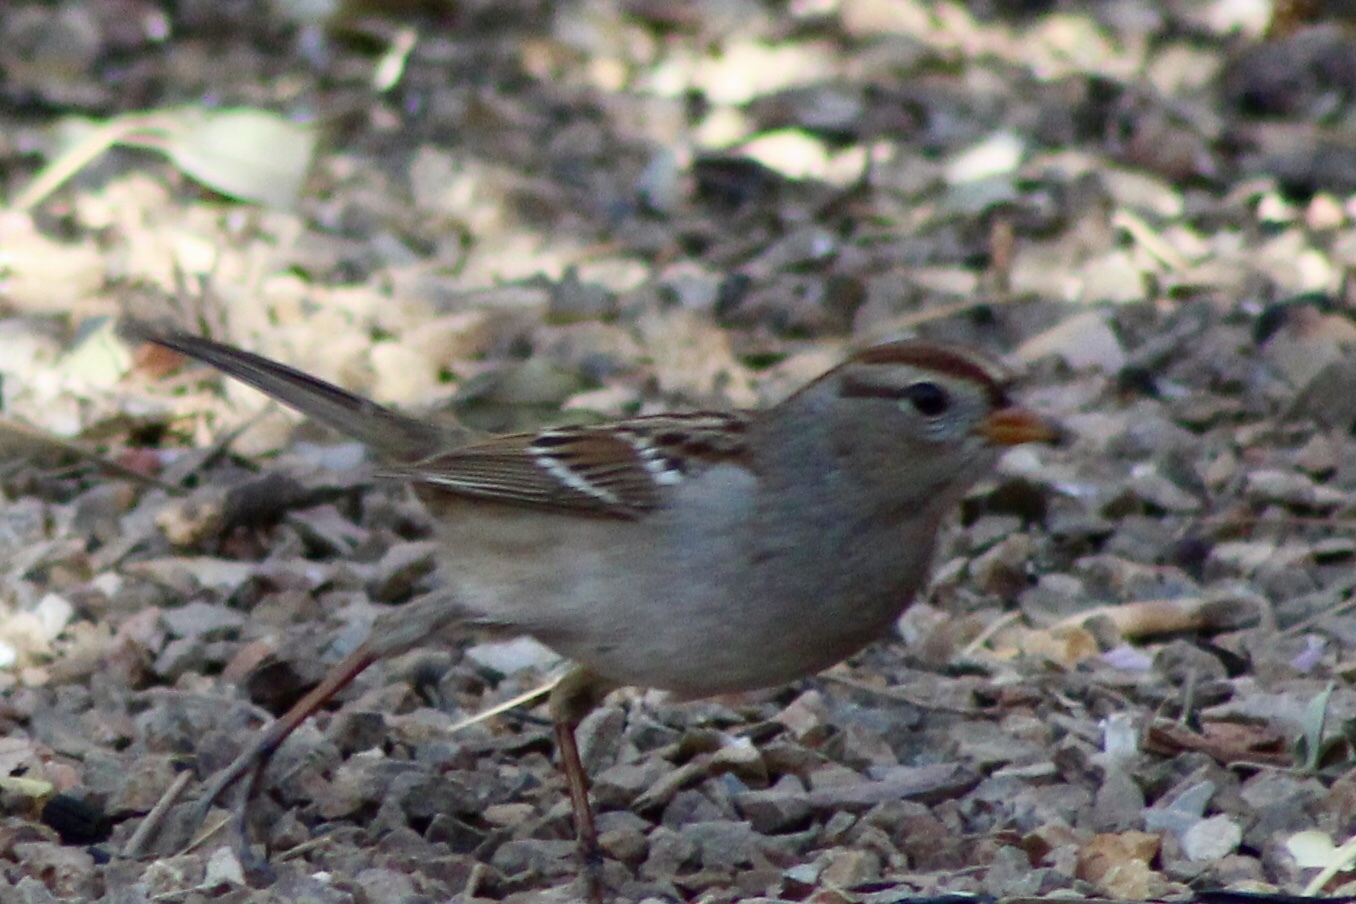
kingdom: Animalia
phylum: Chordata
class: Aves
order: Passeriformes
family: Passerellidae
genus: Zonotrichia
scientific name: Zonotrichia leucophrys
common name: White-crowned sparrow
